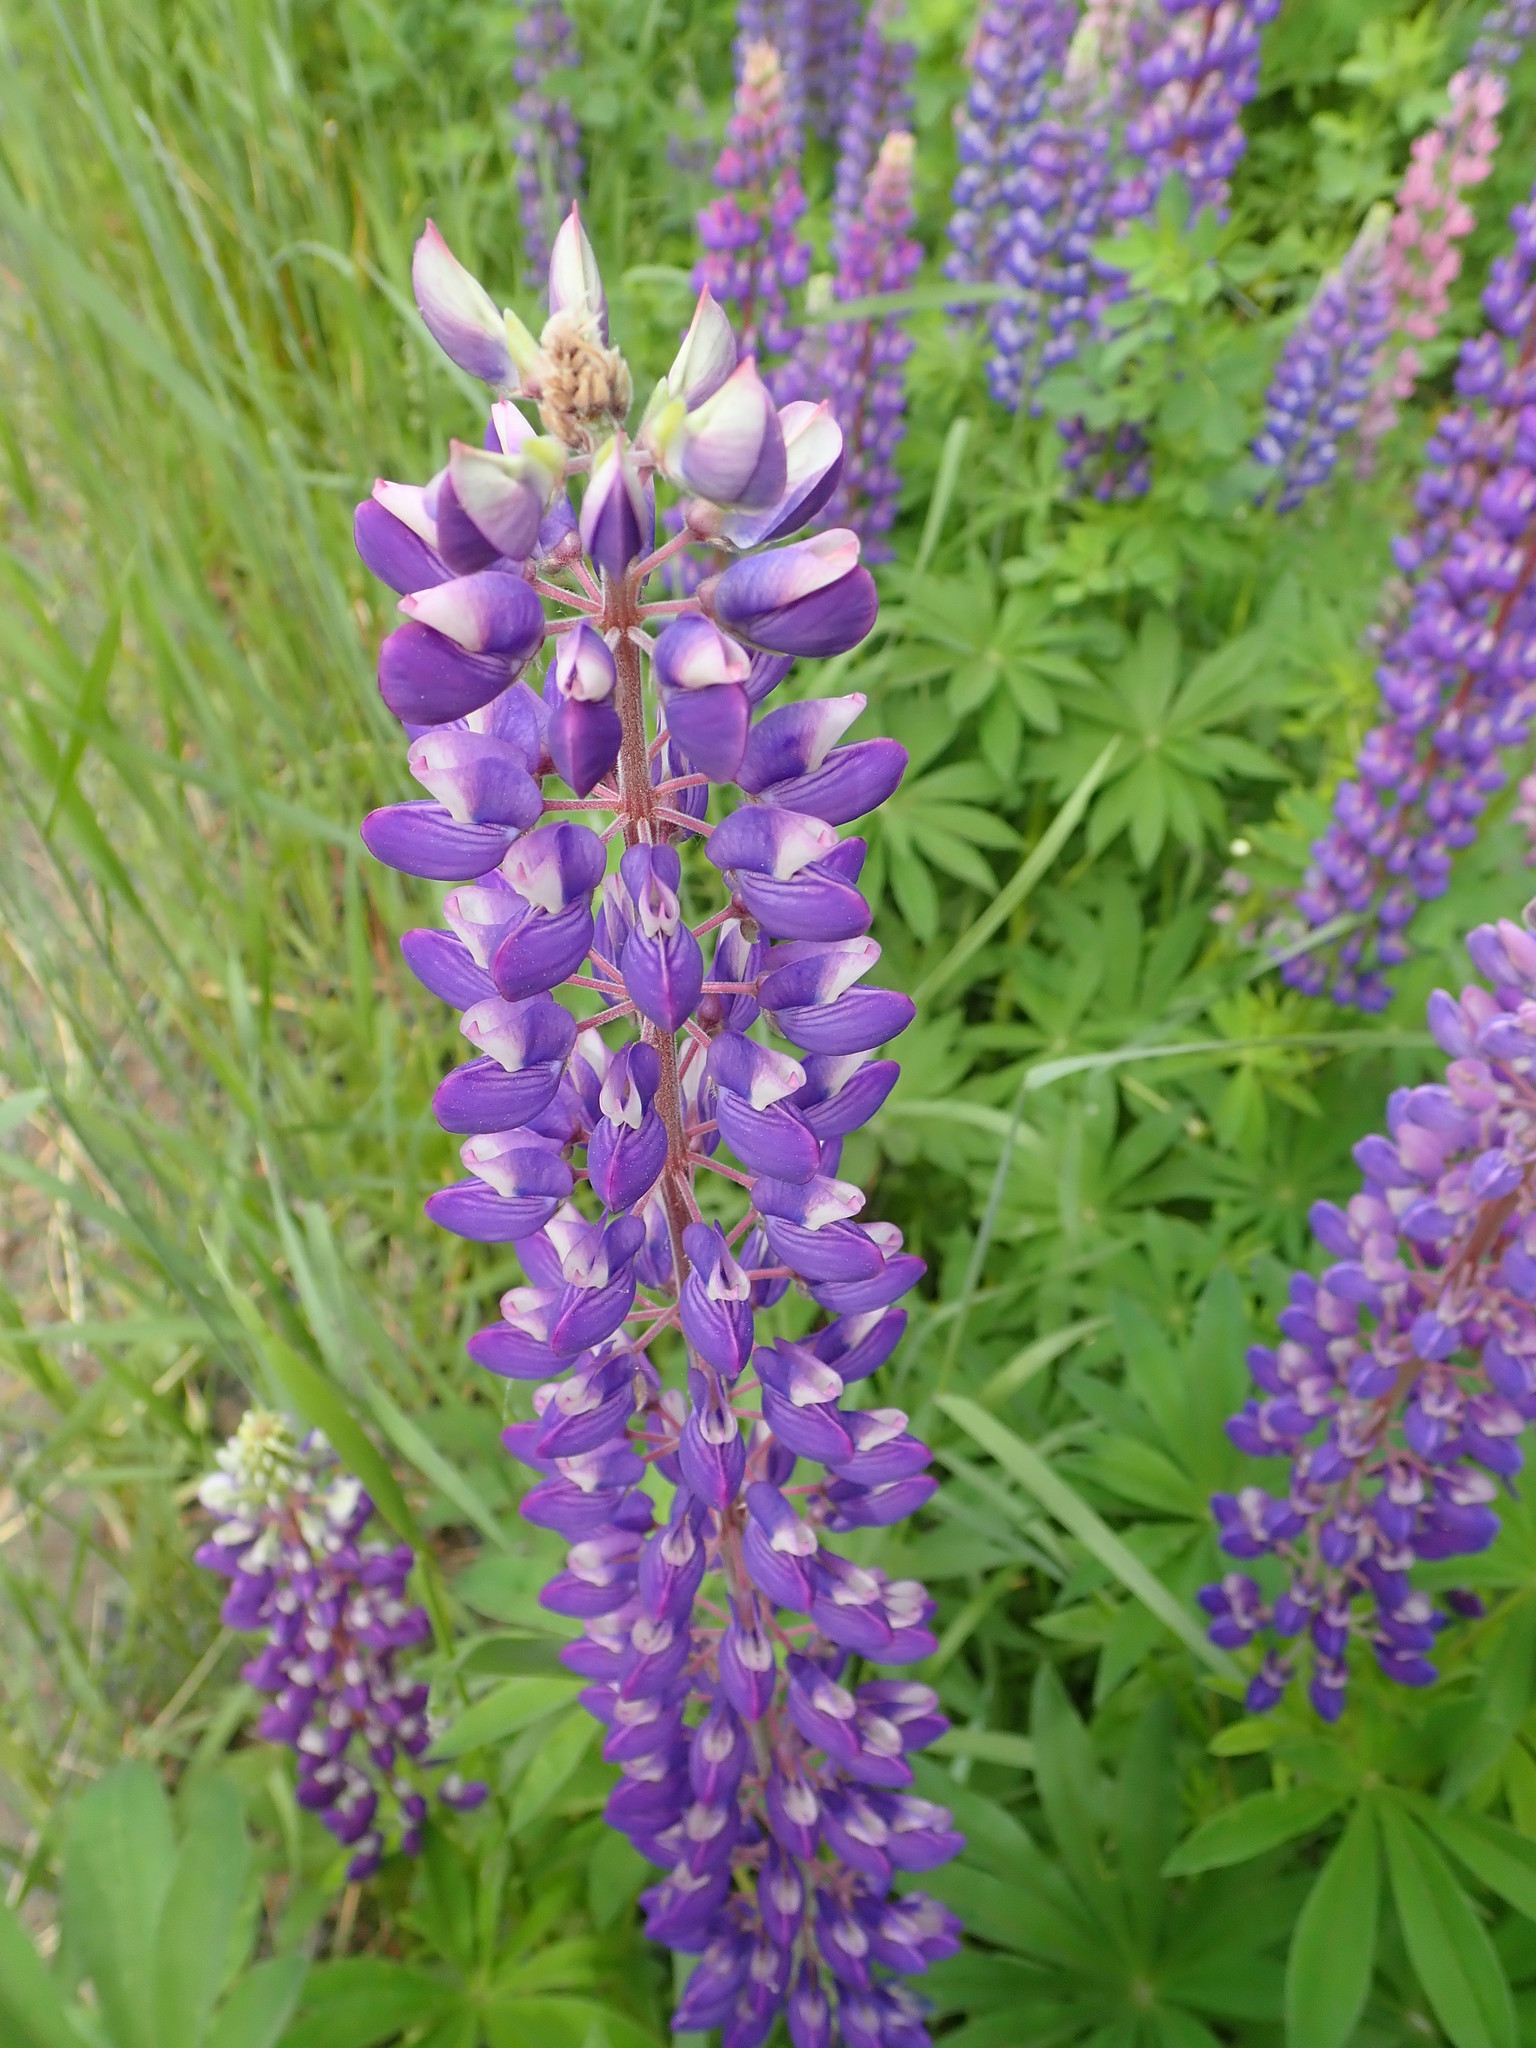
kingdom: Plantae
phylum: Tracheophyta
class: Magnoliopsida
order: Fabales
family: Fabaceae
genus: Lupinus
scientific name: Lupinus polyphyllus
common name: Garden lupin
